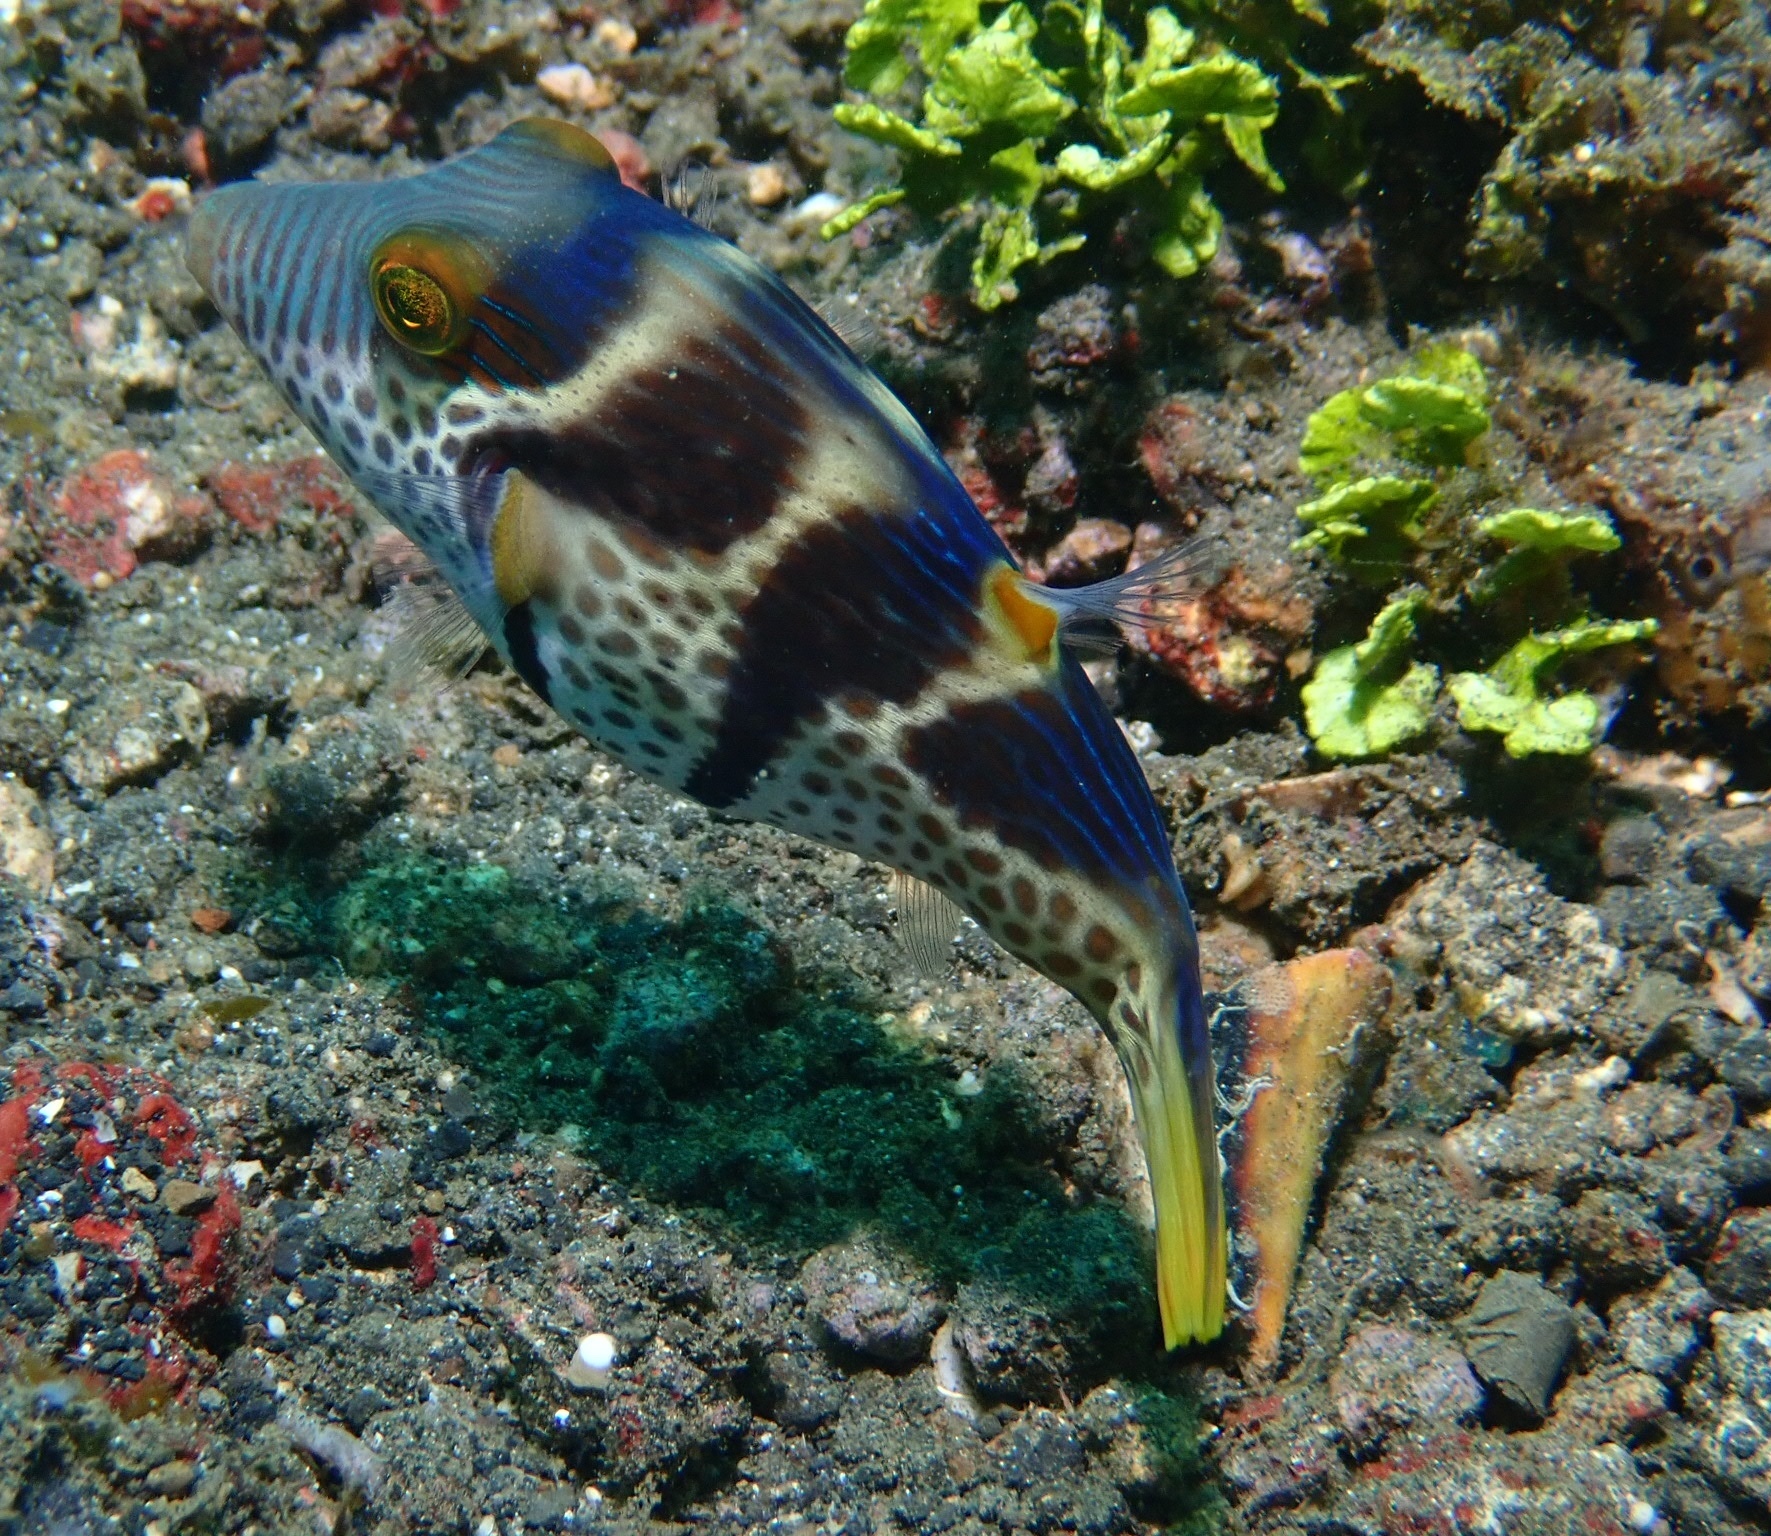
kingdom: Animalia
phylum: Chordata
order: Tetraodontiformes
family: Tetraodontidae
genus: Canthigaster
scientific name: Canthigaster valentini
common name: Banded toby
